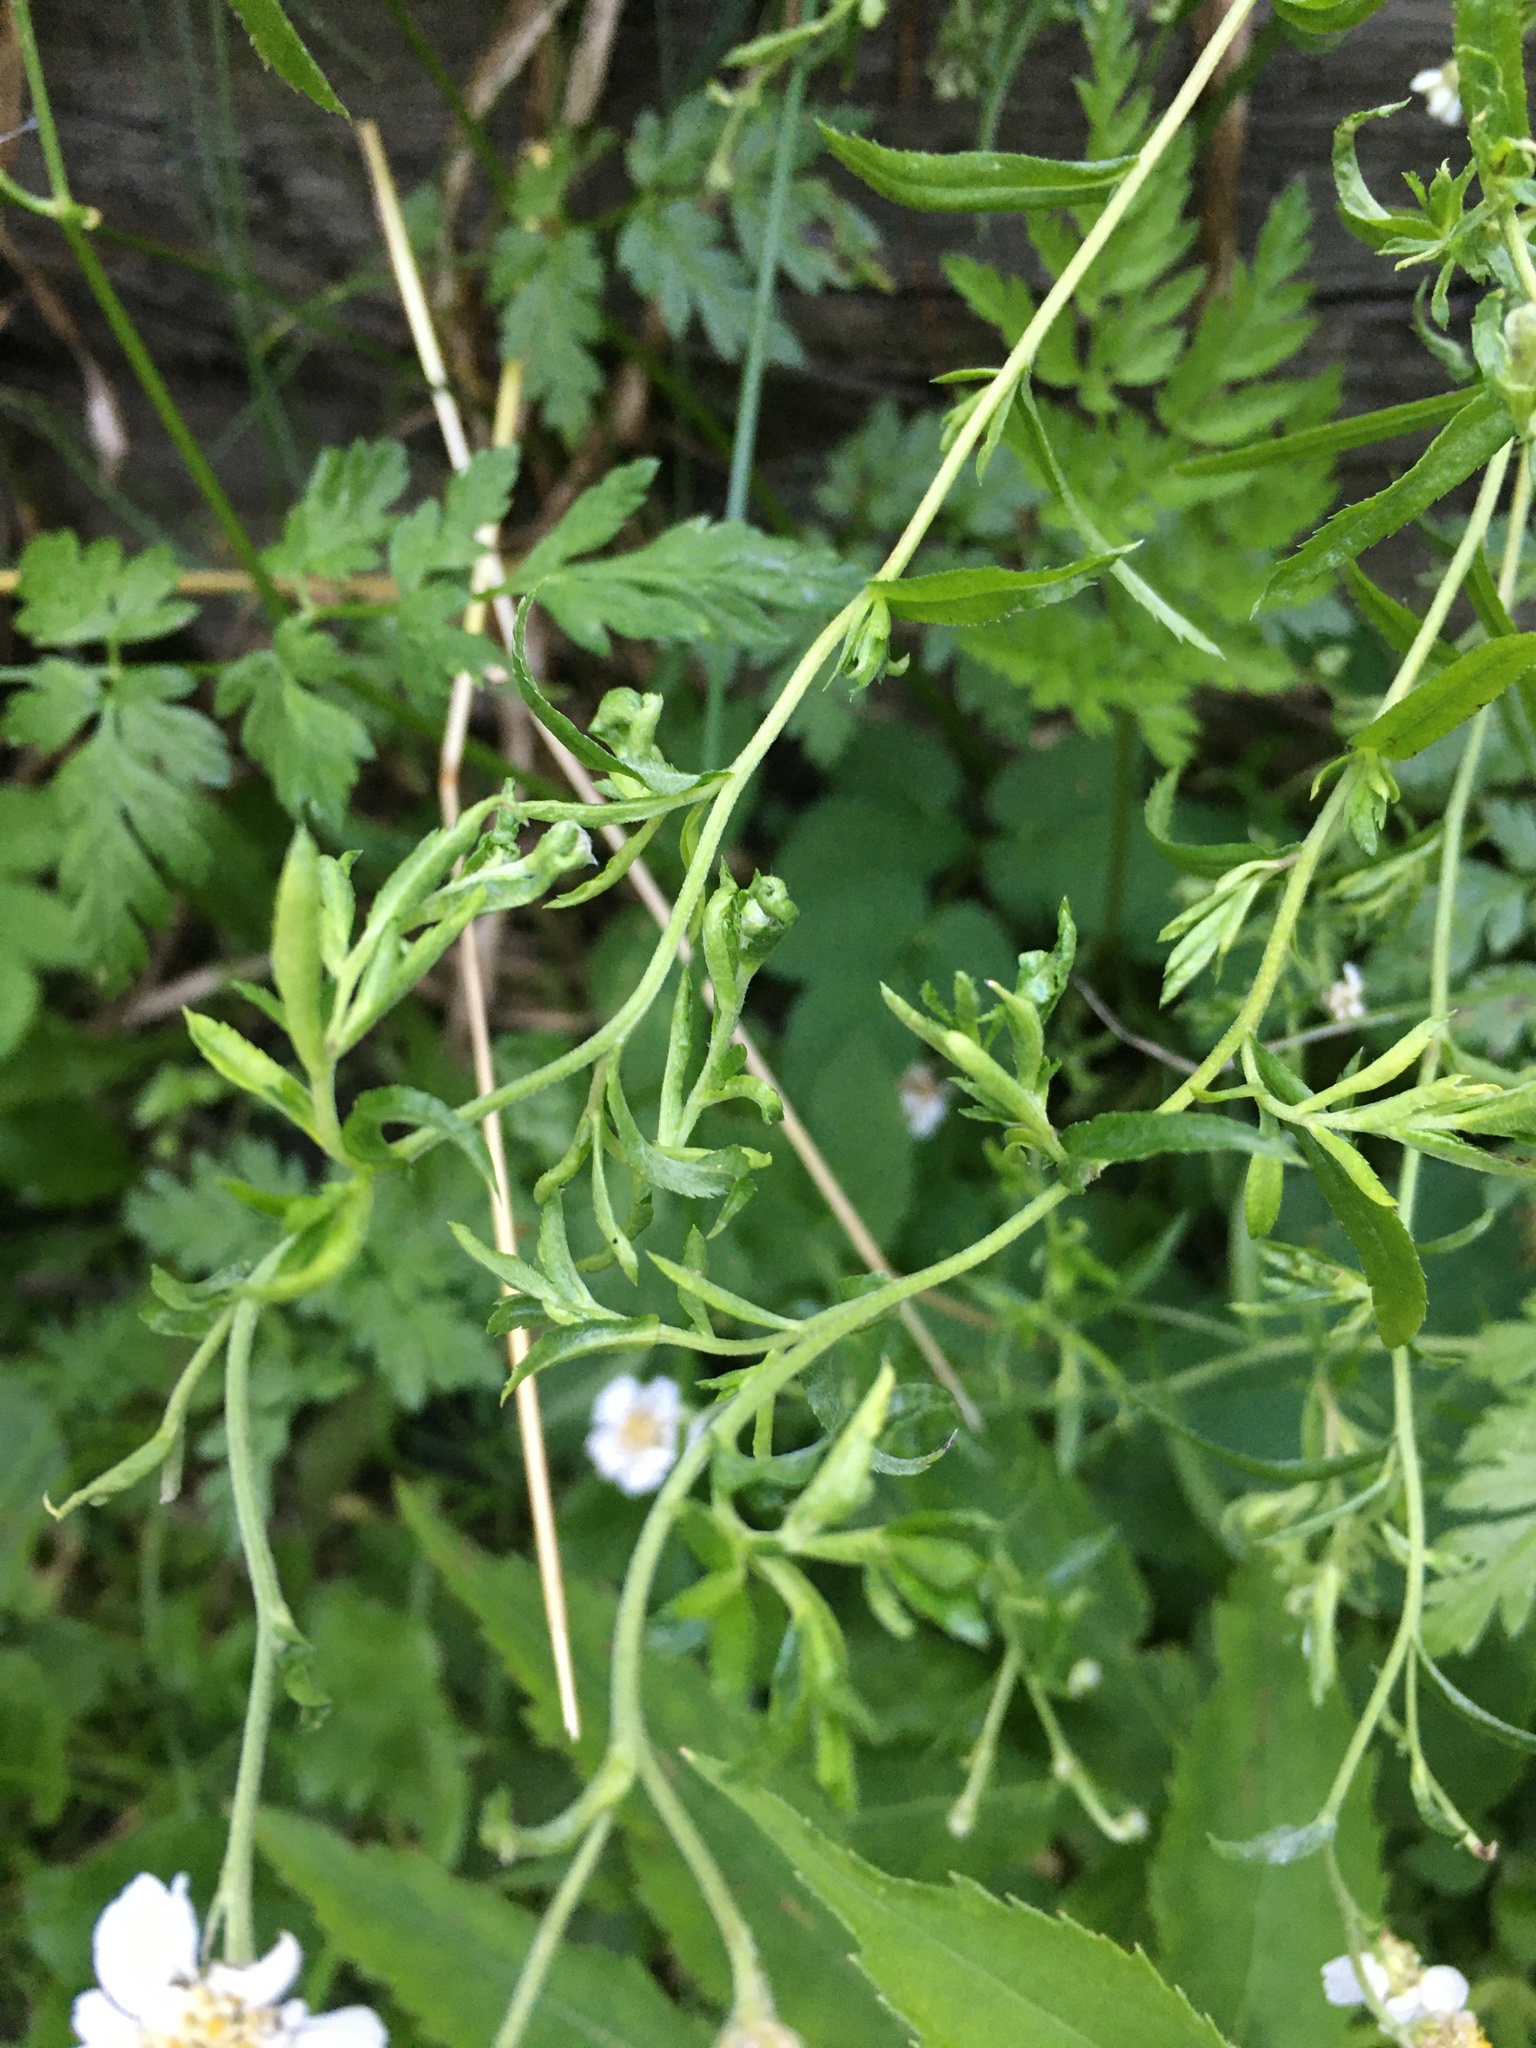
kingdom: Plantae
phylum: Tracheophyta
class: Magnoliopsida
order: Asterales
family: Asteraceae
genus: Achillea
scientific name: Achillea ptarmica
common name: Sneezeweed
